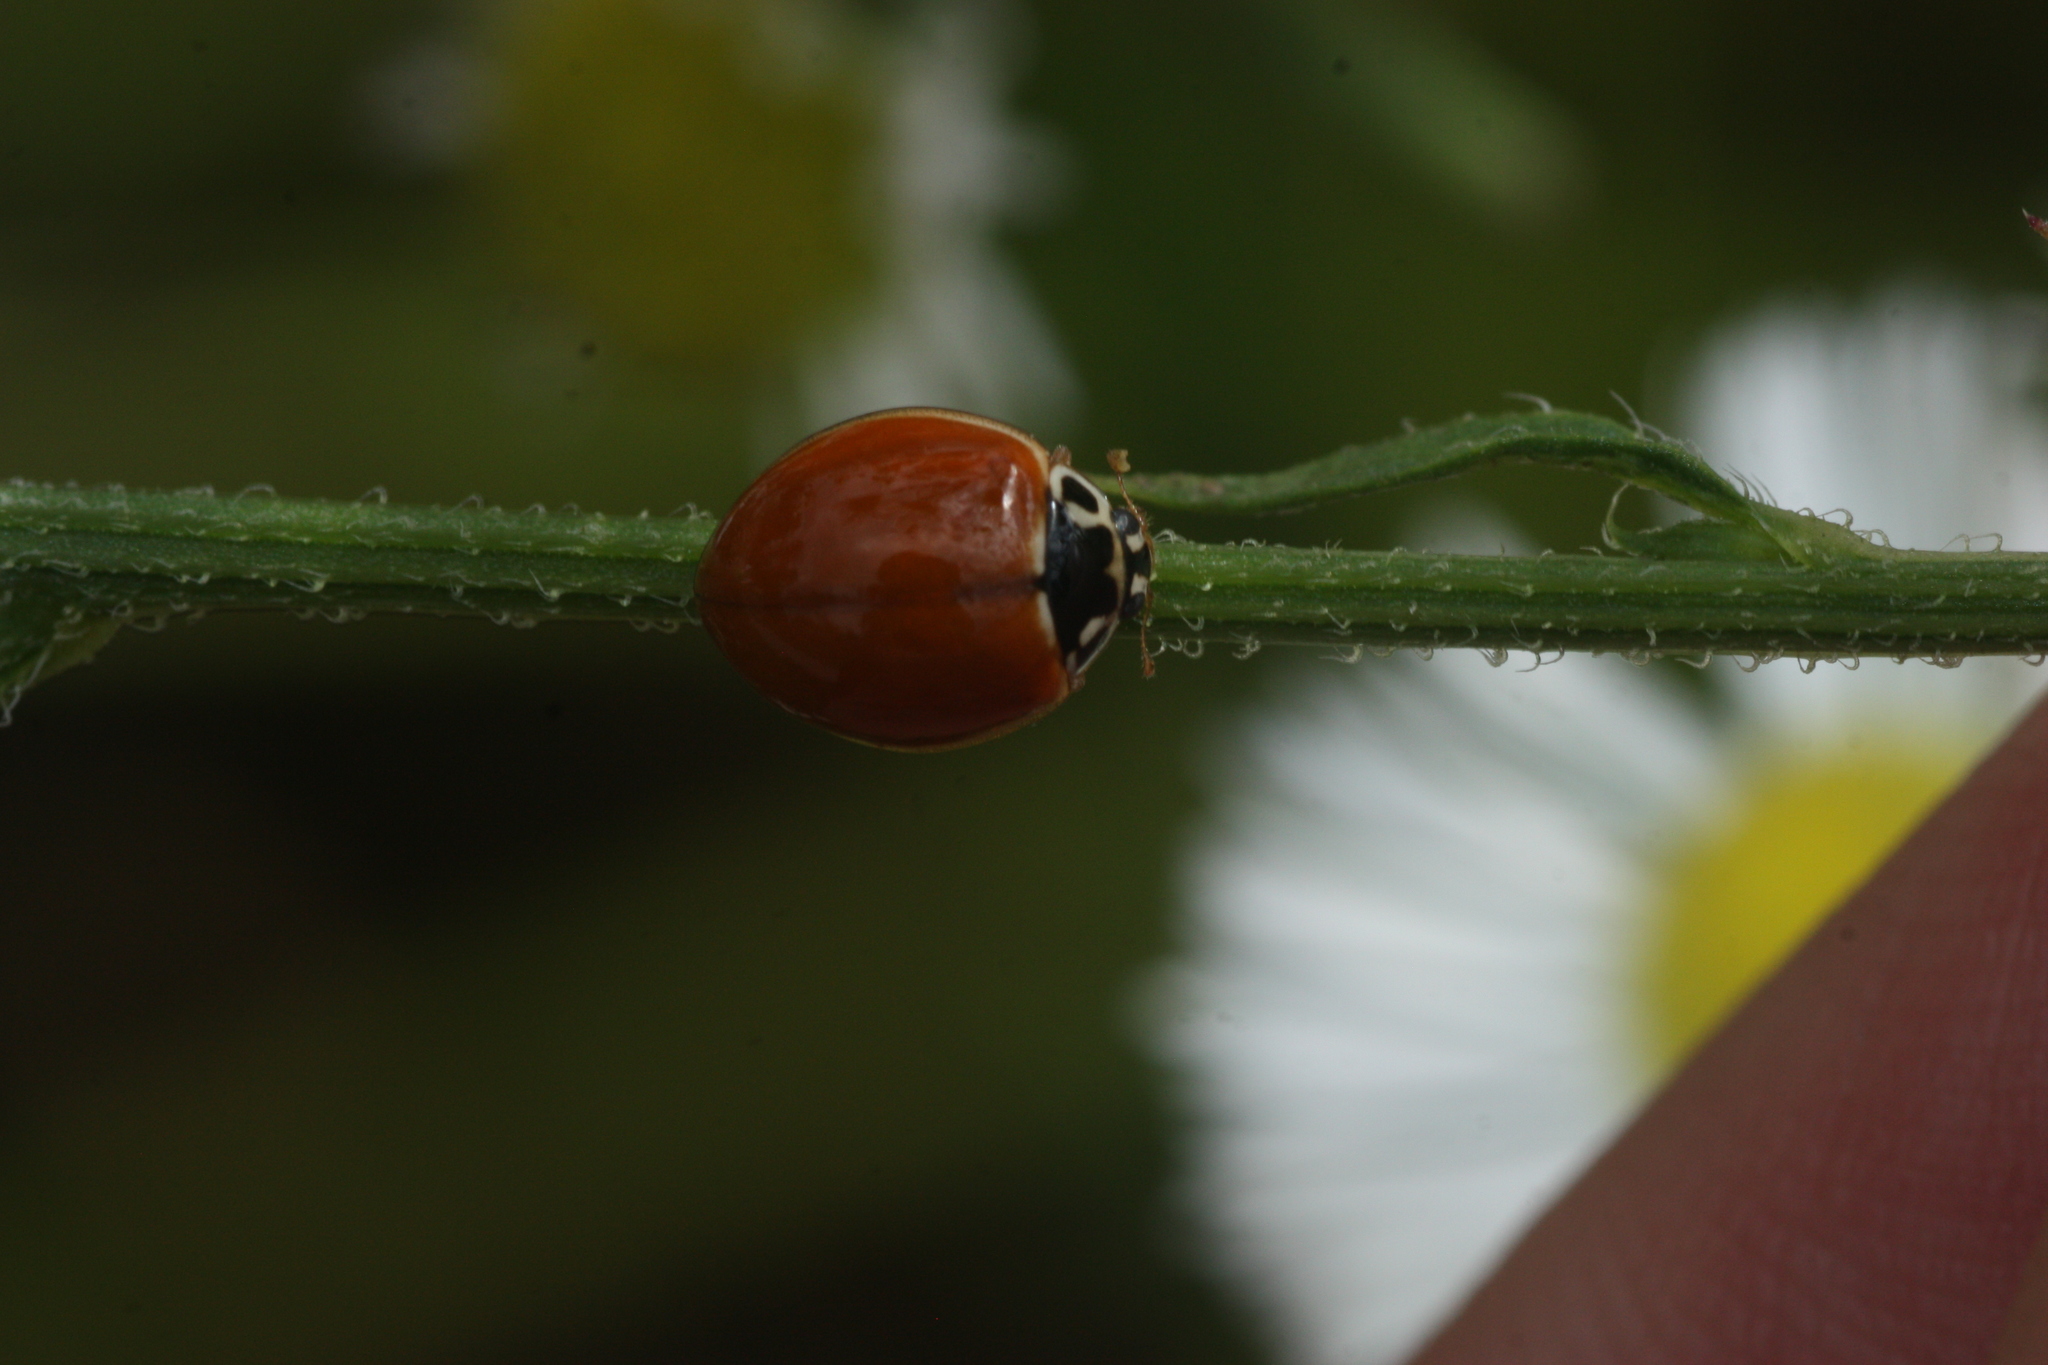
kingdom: Animalia
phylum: Arthropoda
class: Insecta
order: Coleoptera
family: Coccinellidae
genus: Cycloneda
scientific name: Cycloneda munda
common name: Polished lady beetle
